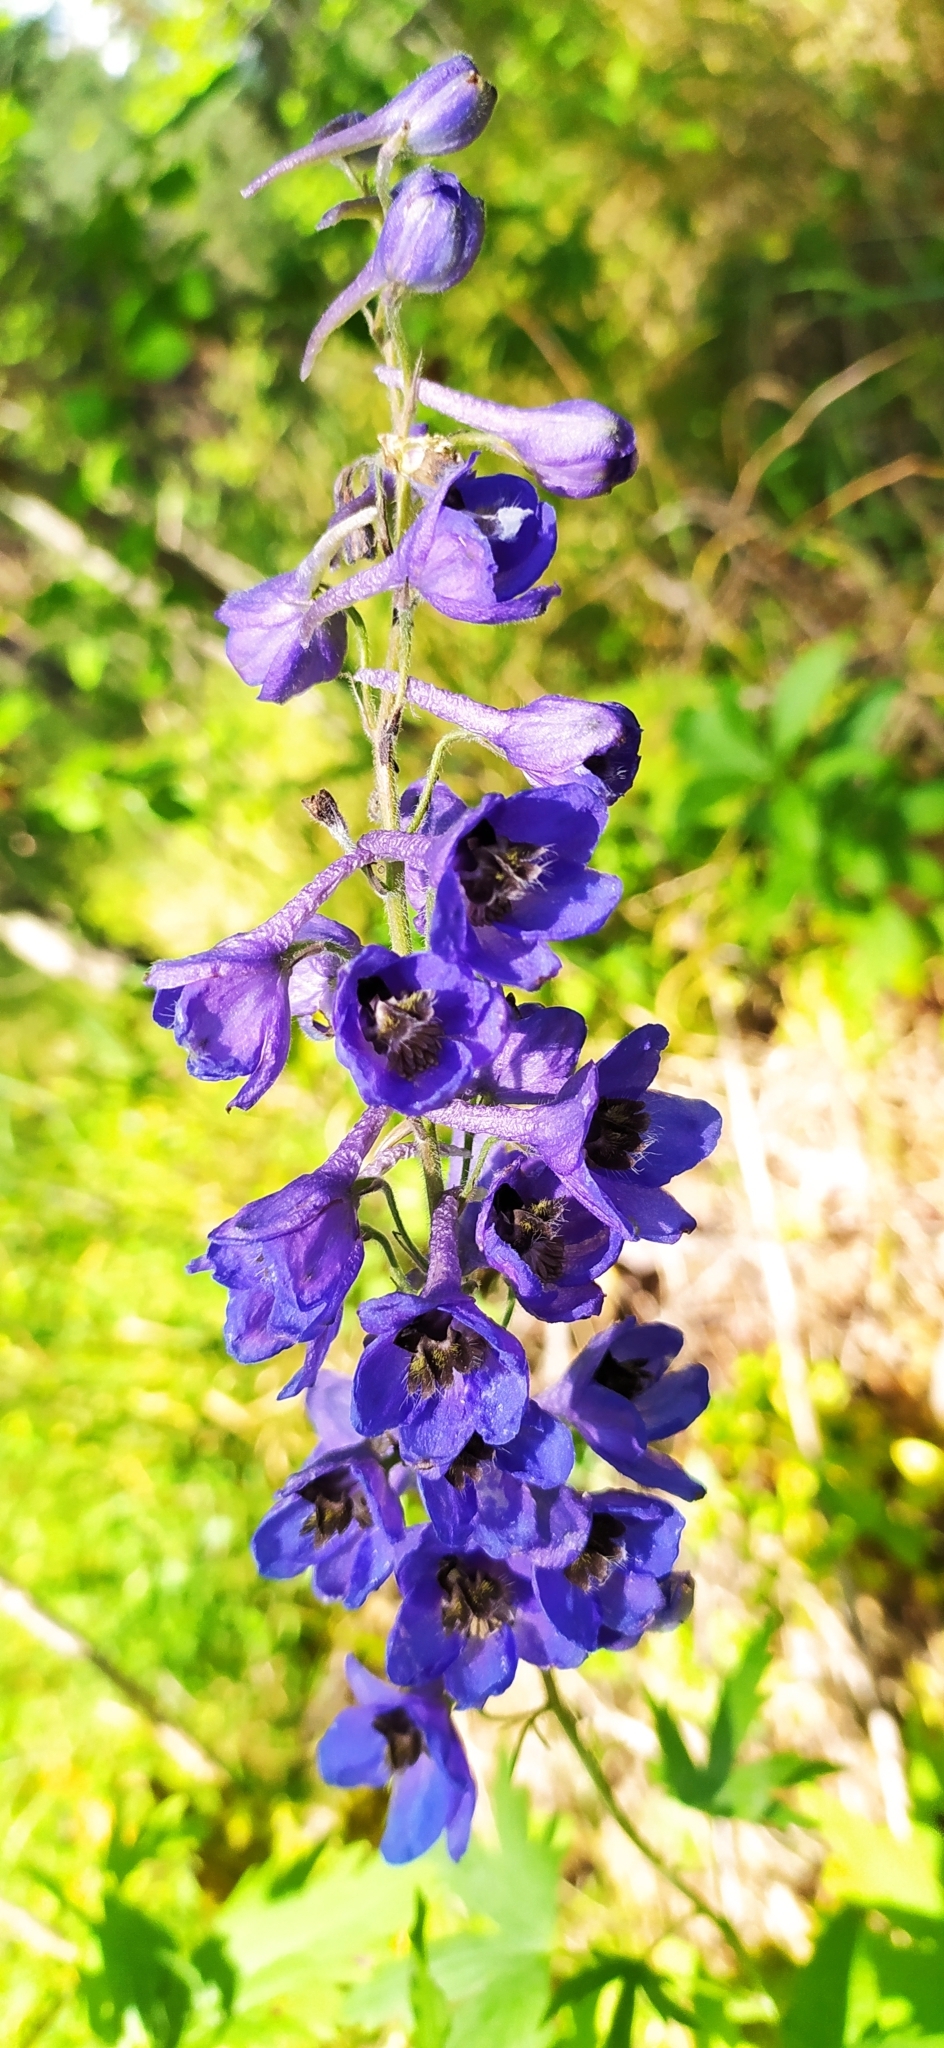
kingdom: Plantae
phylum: Tracheophyta
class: Magnoliopsida
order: Ranunculales
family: Ranunculaceae
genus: Delphinium
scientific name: Delphinium elatum
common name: Candle larkspur
